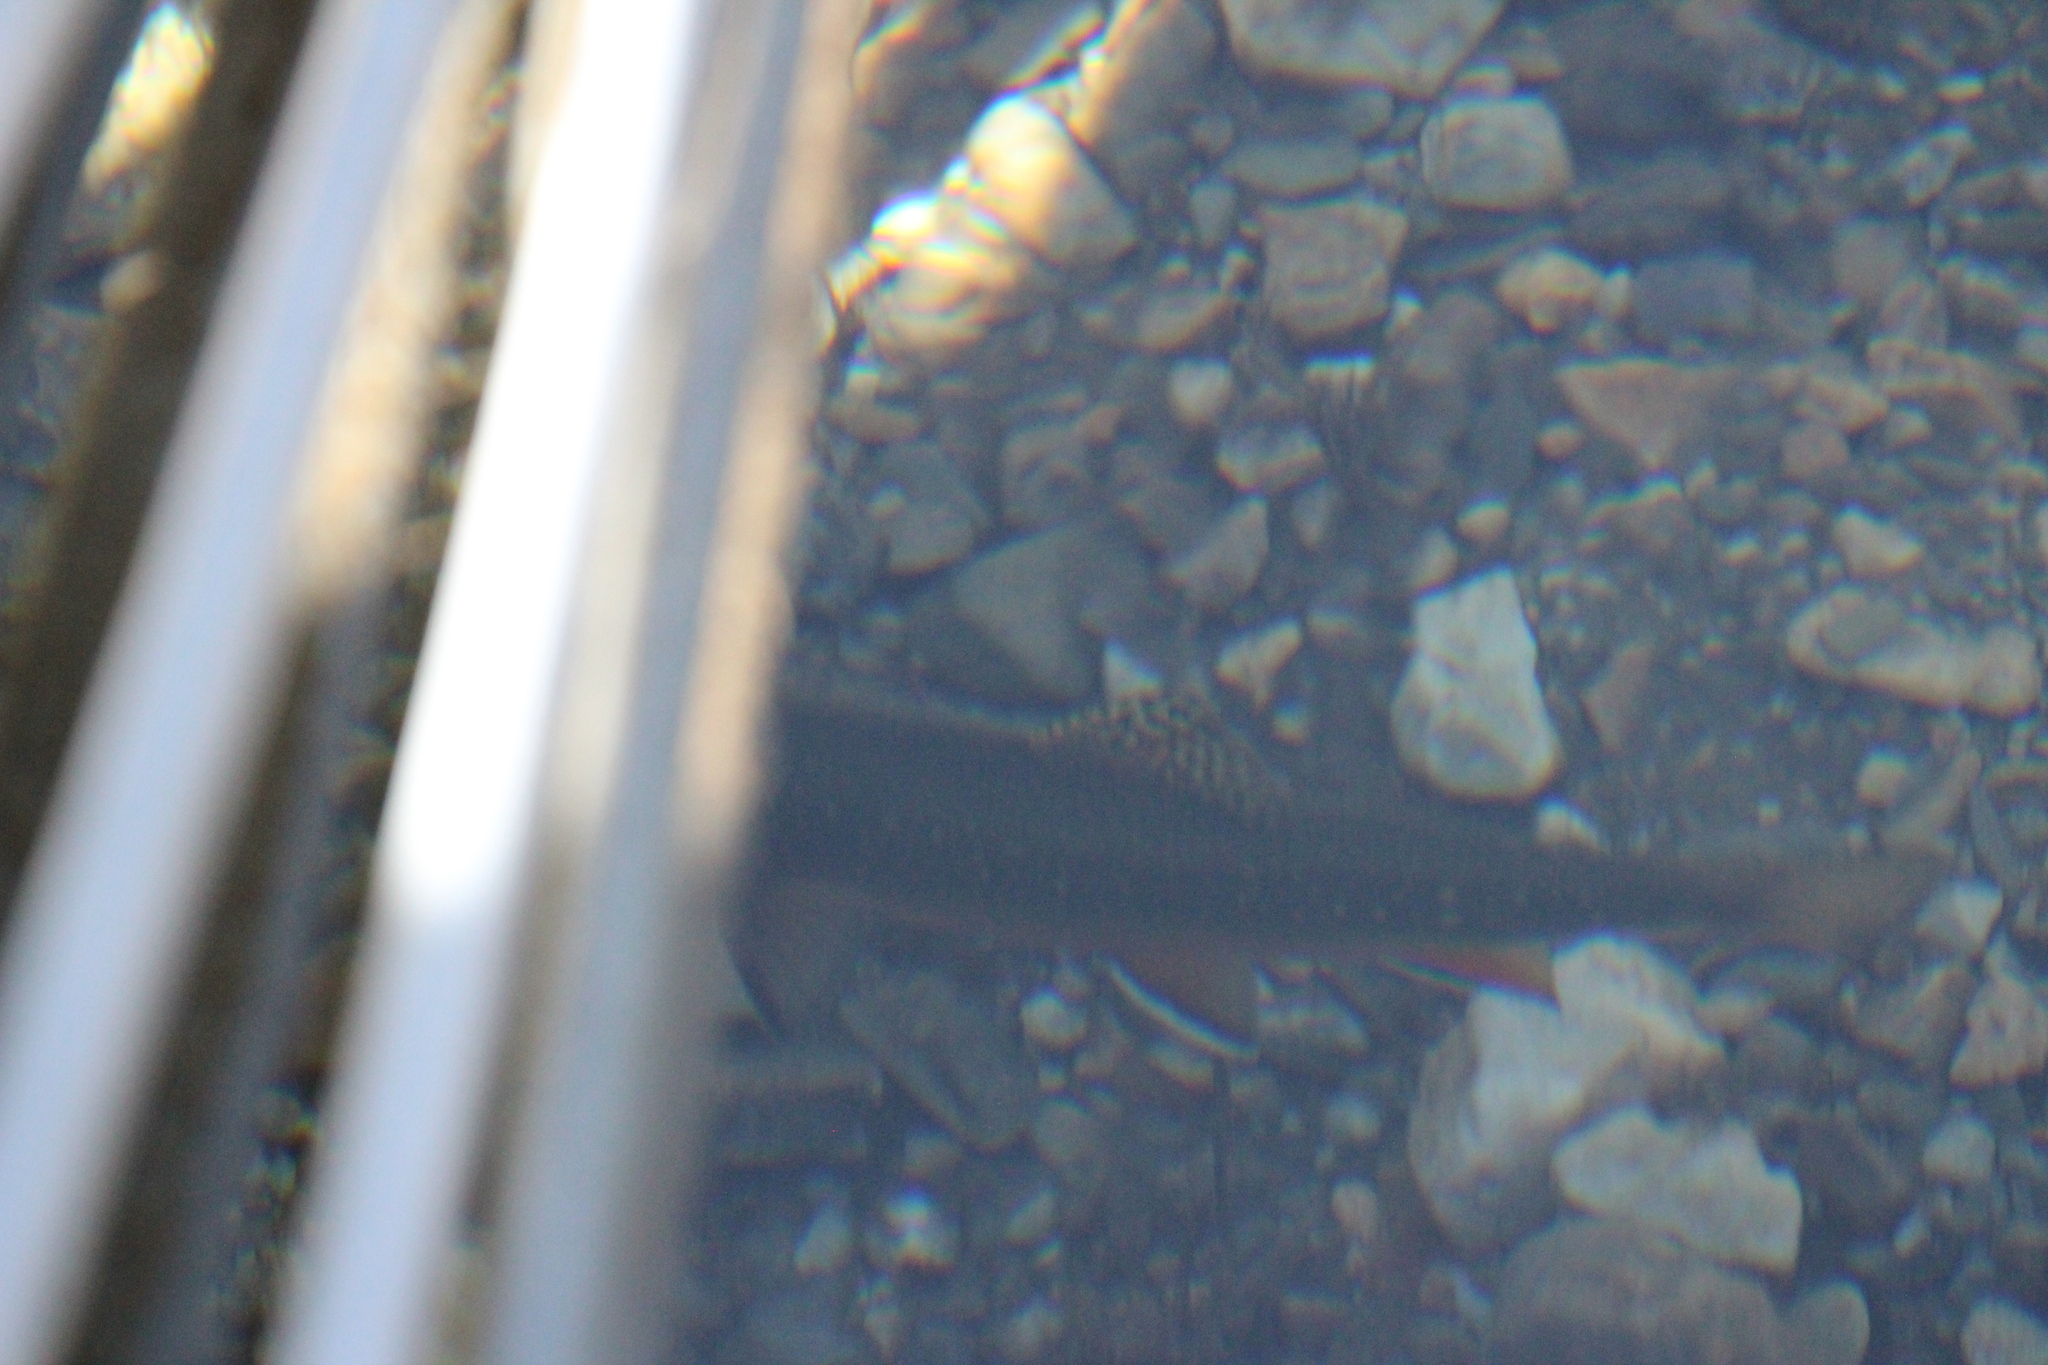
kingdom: Animalia
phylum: Chordata
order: Salmoniformes
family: Salmonidae
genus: Salvelinus
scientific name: Salvelinus fontinalis
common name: Brook trout
